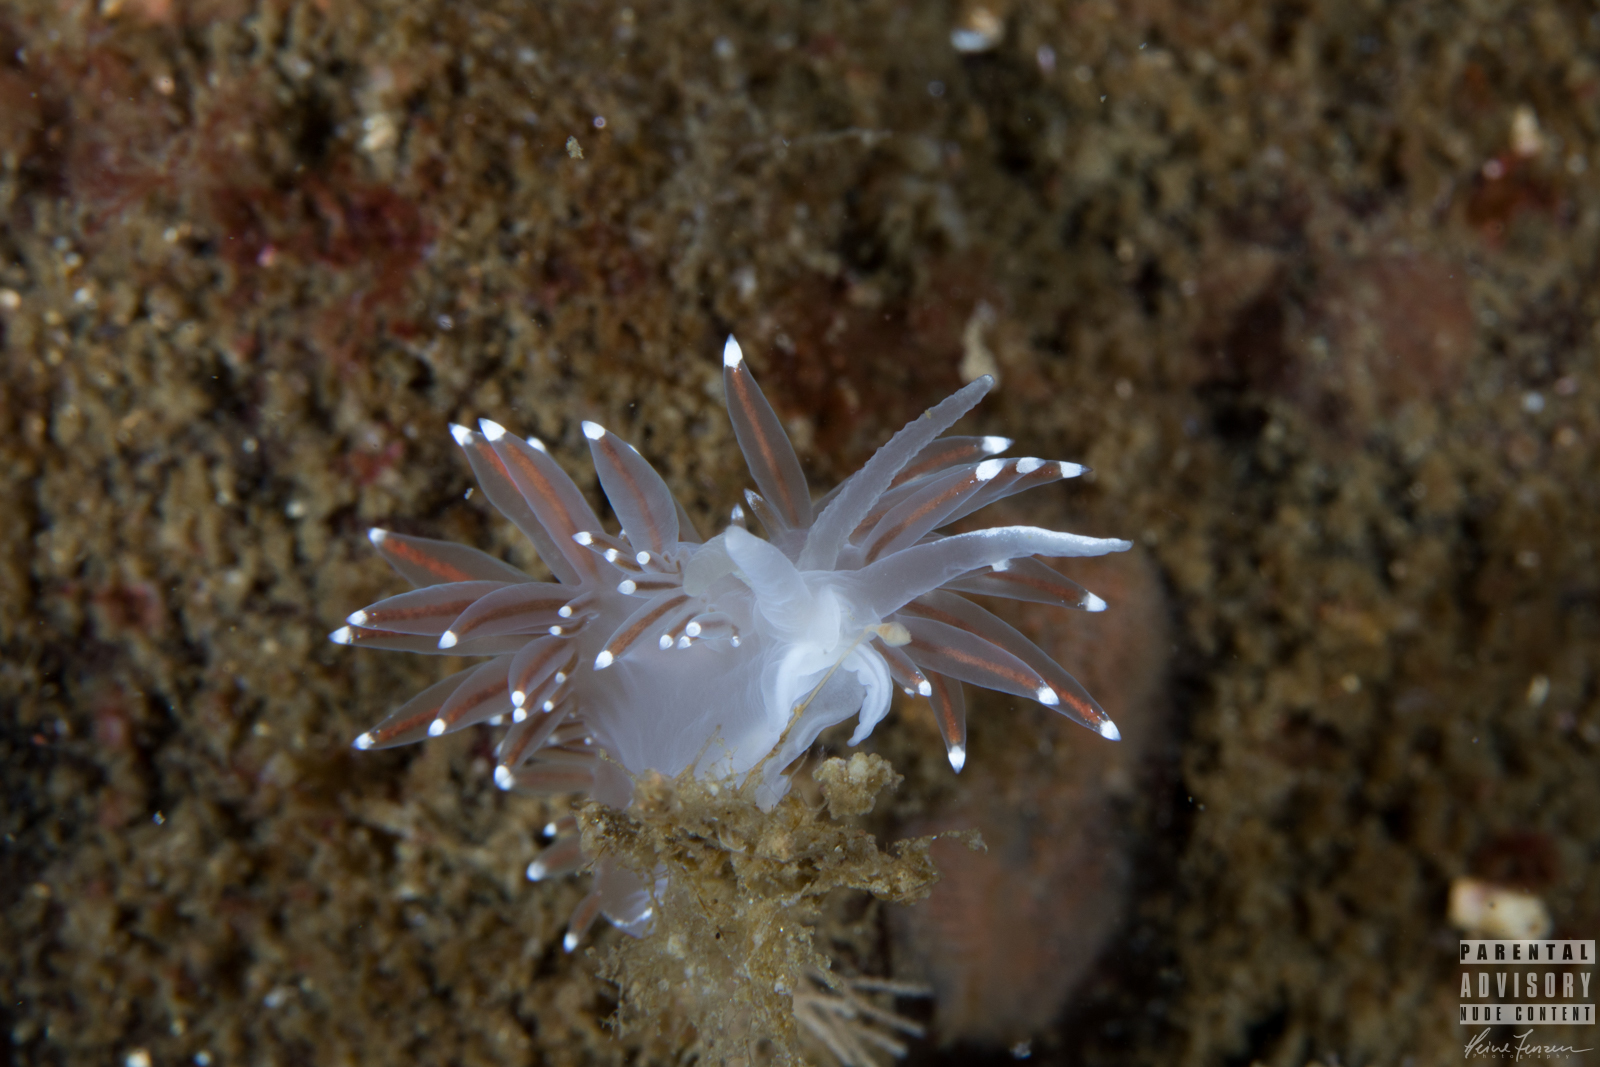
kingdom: Animalia
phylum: Mollusca
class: Gastropoda
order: Nudibranchia
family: Coryphellidae
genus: Coryphella
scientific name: Coryphella browni
